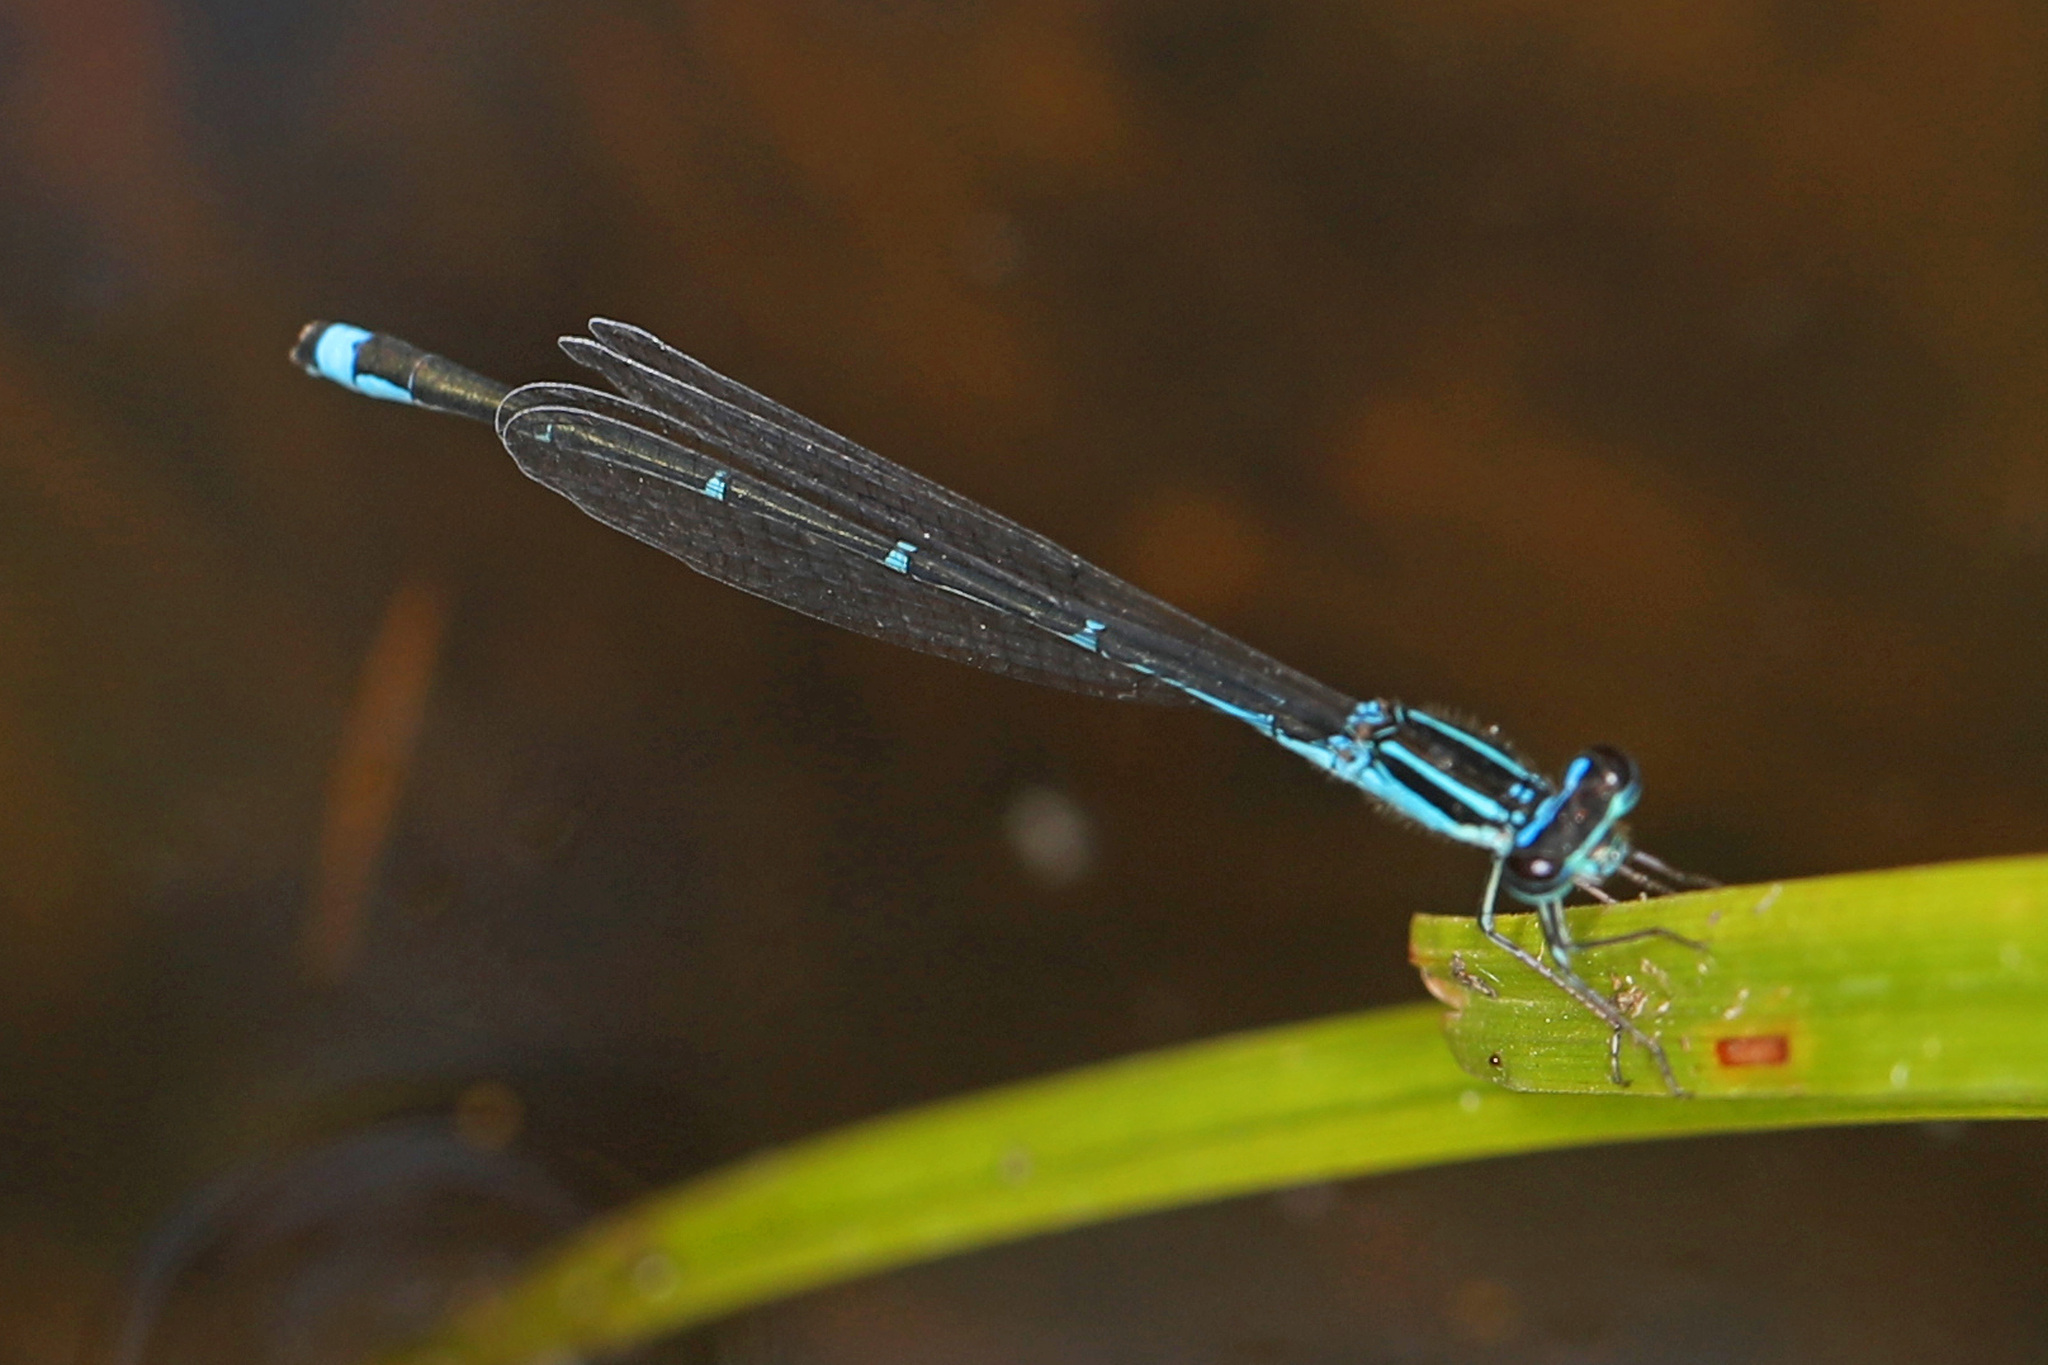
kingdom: Animalia
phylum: Arthropoda
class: Insecta
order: Odonata
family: Coenagrionidae
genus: Enallagma
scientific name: Enallagma exsulans
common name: Stream bluet
